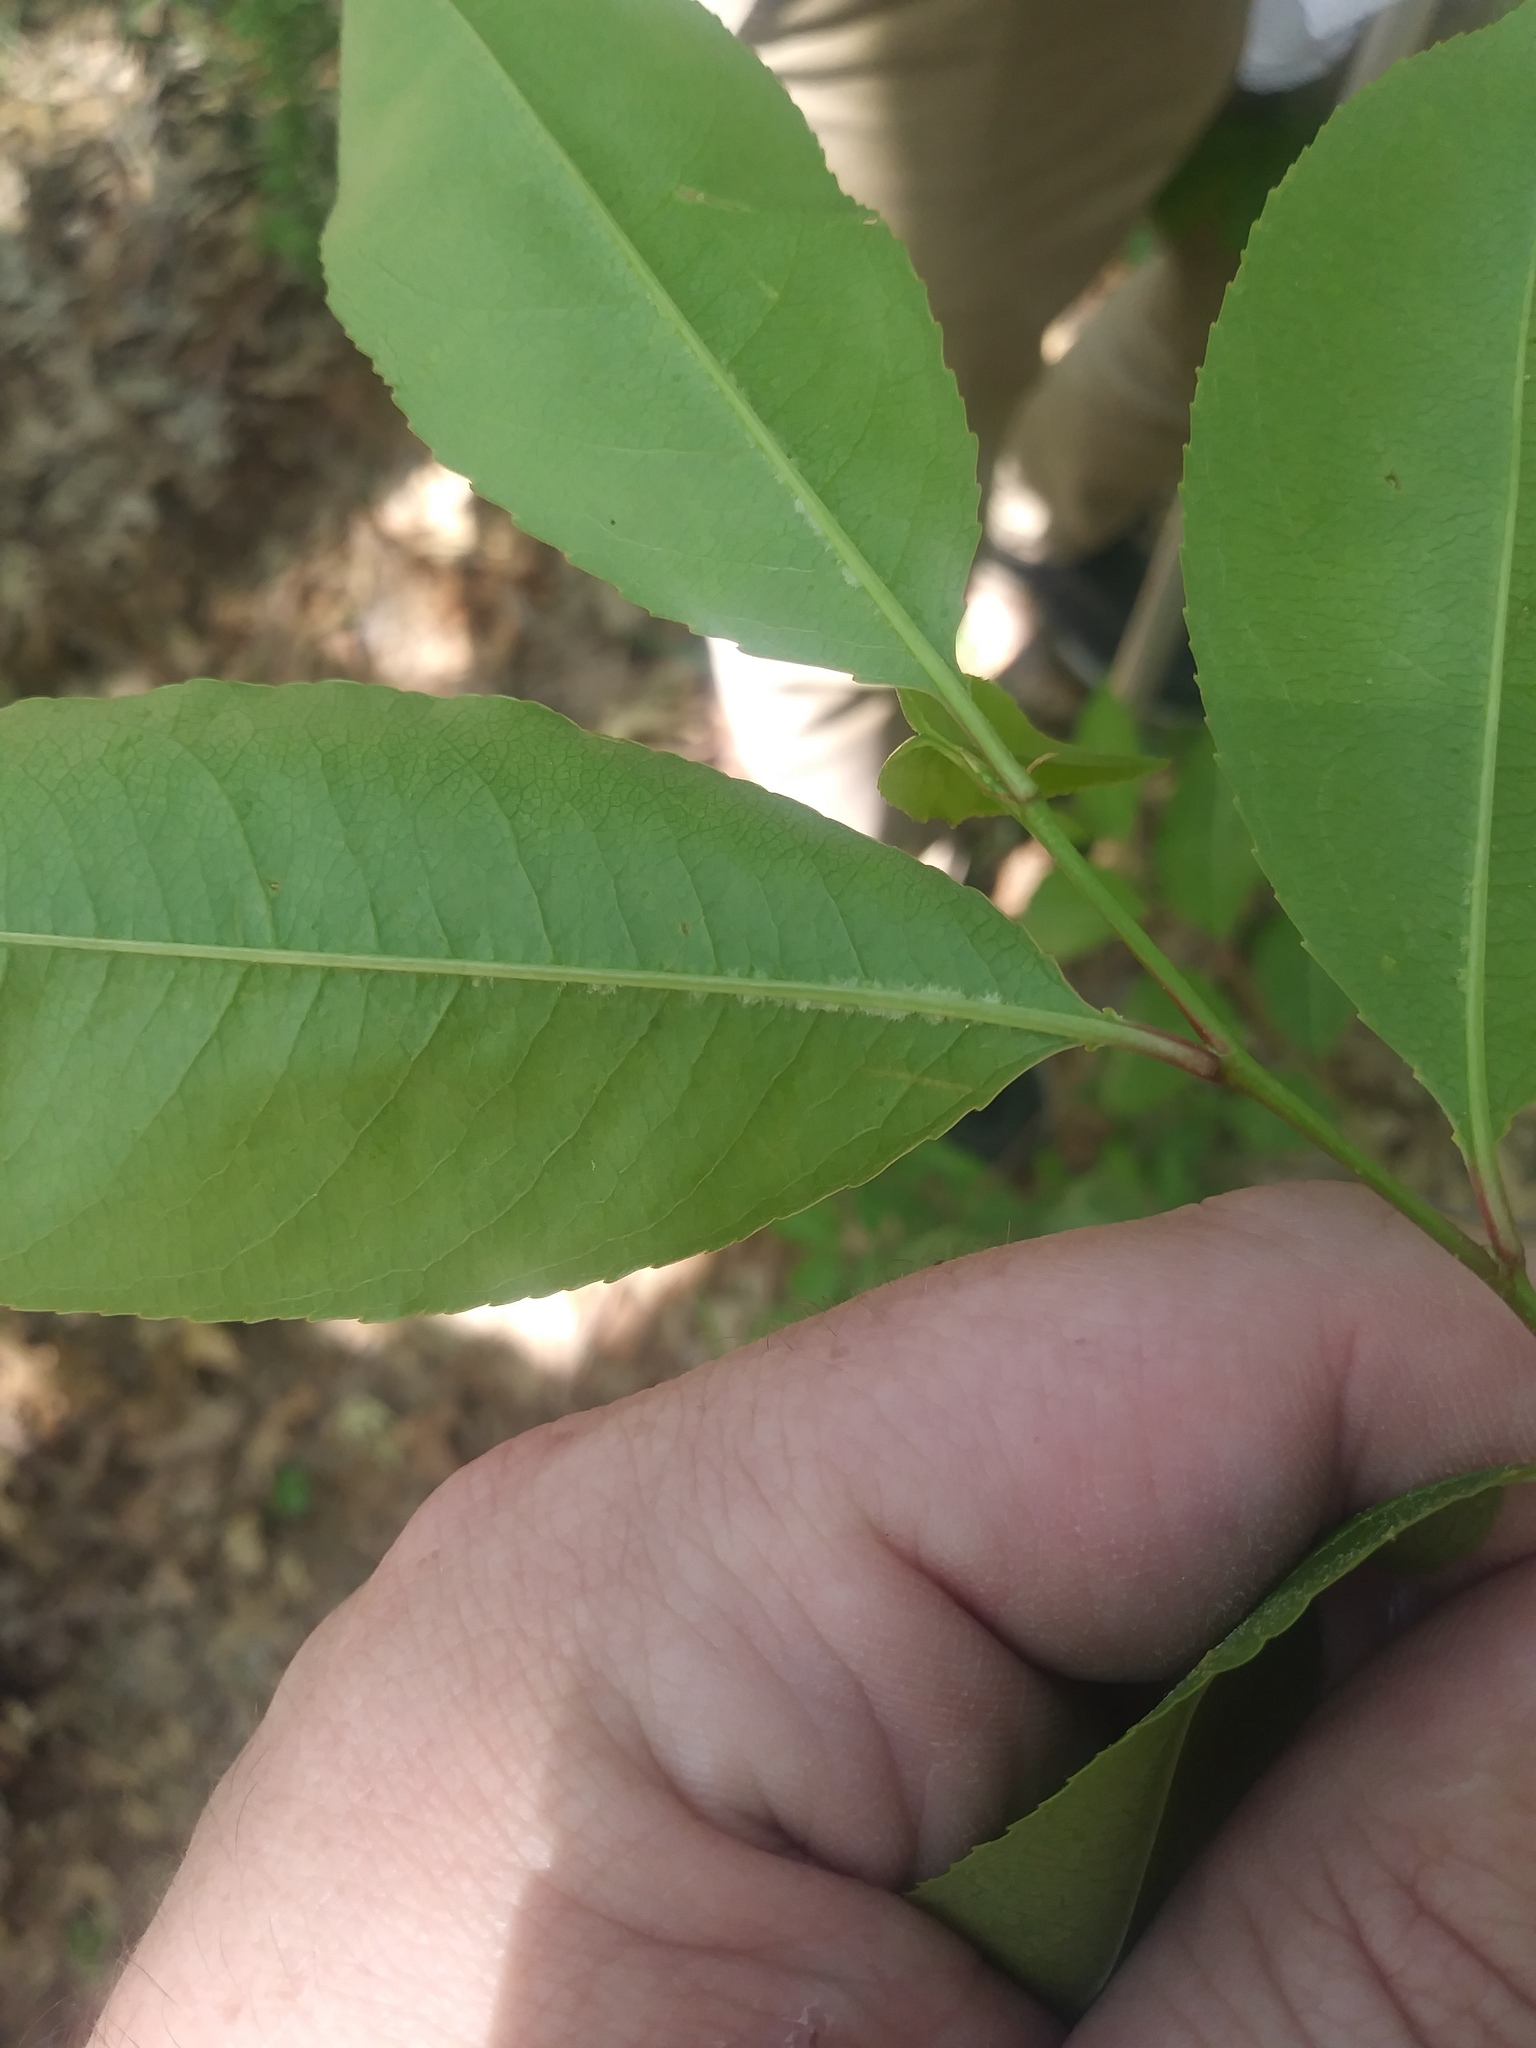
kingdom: Plantae
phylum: Tracheophyta
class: Magnoliopsida
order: Rosales
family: Rosaceae
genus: Prunus
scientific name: Prunus serotina
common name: Black cherry
